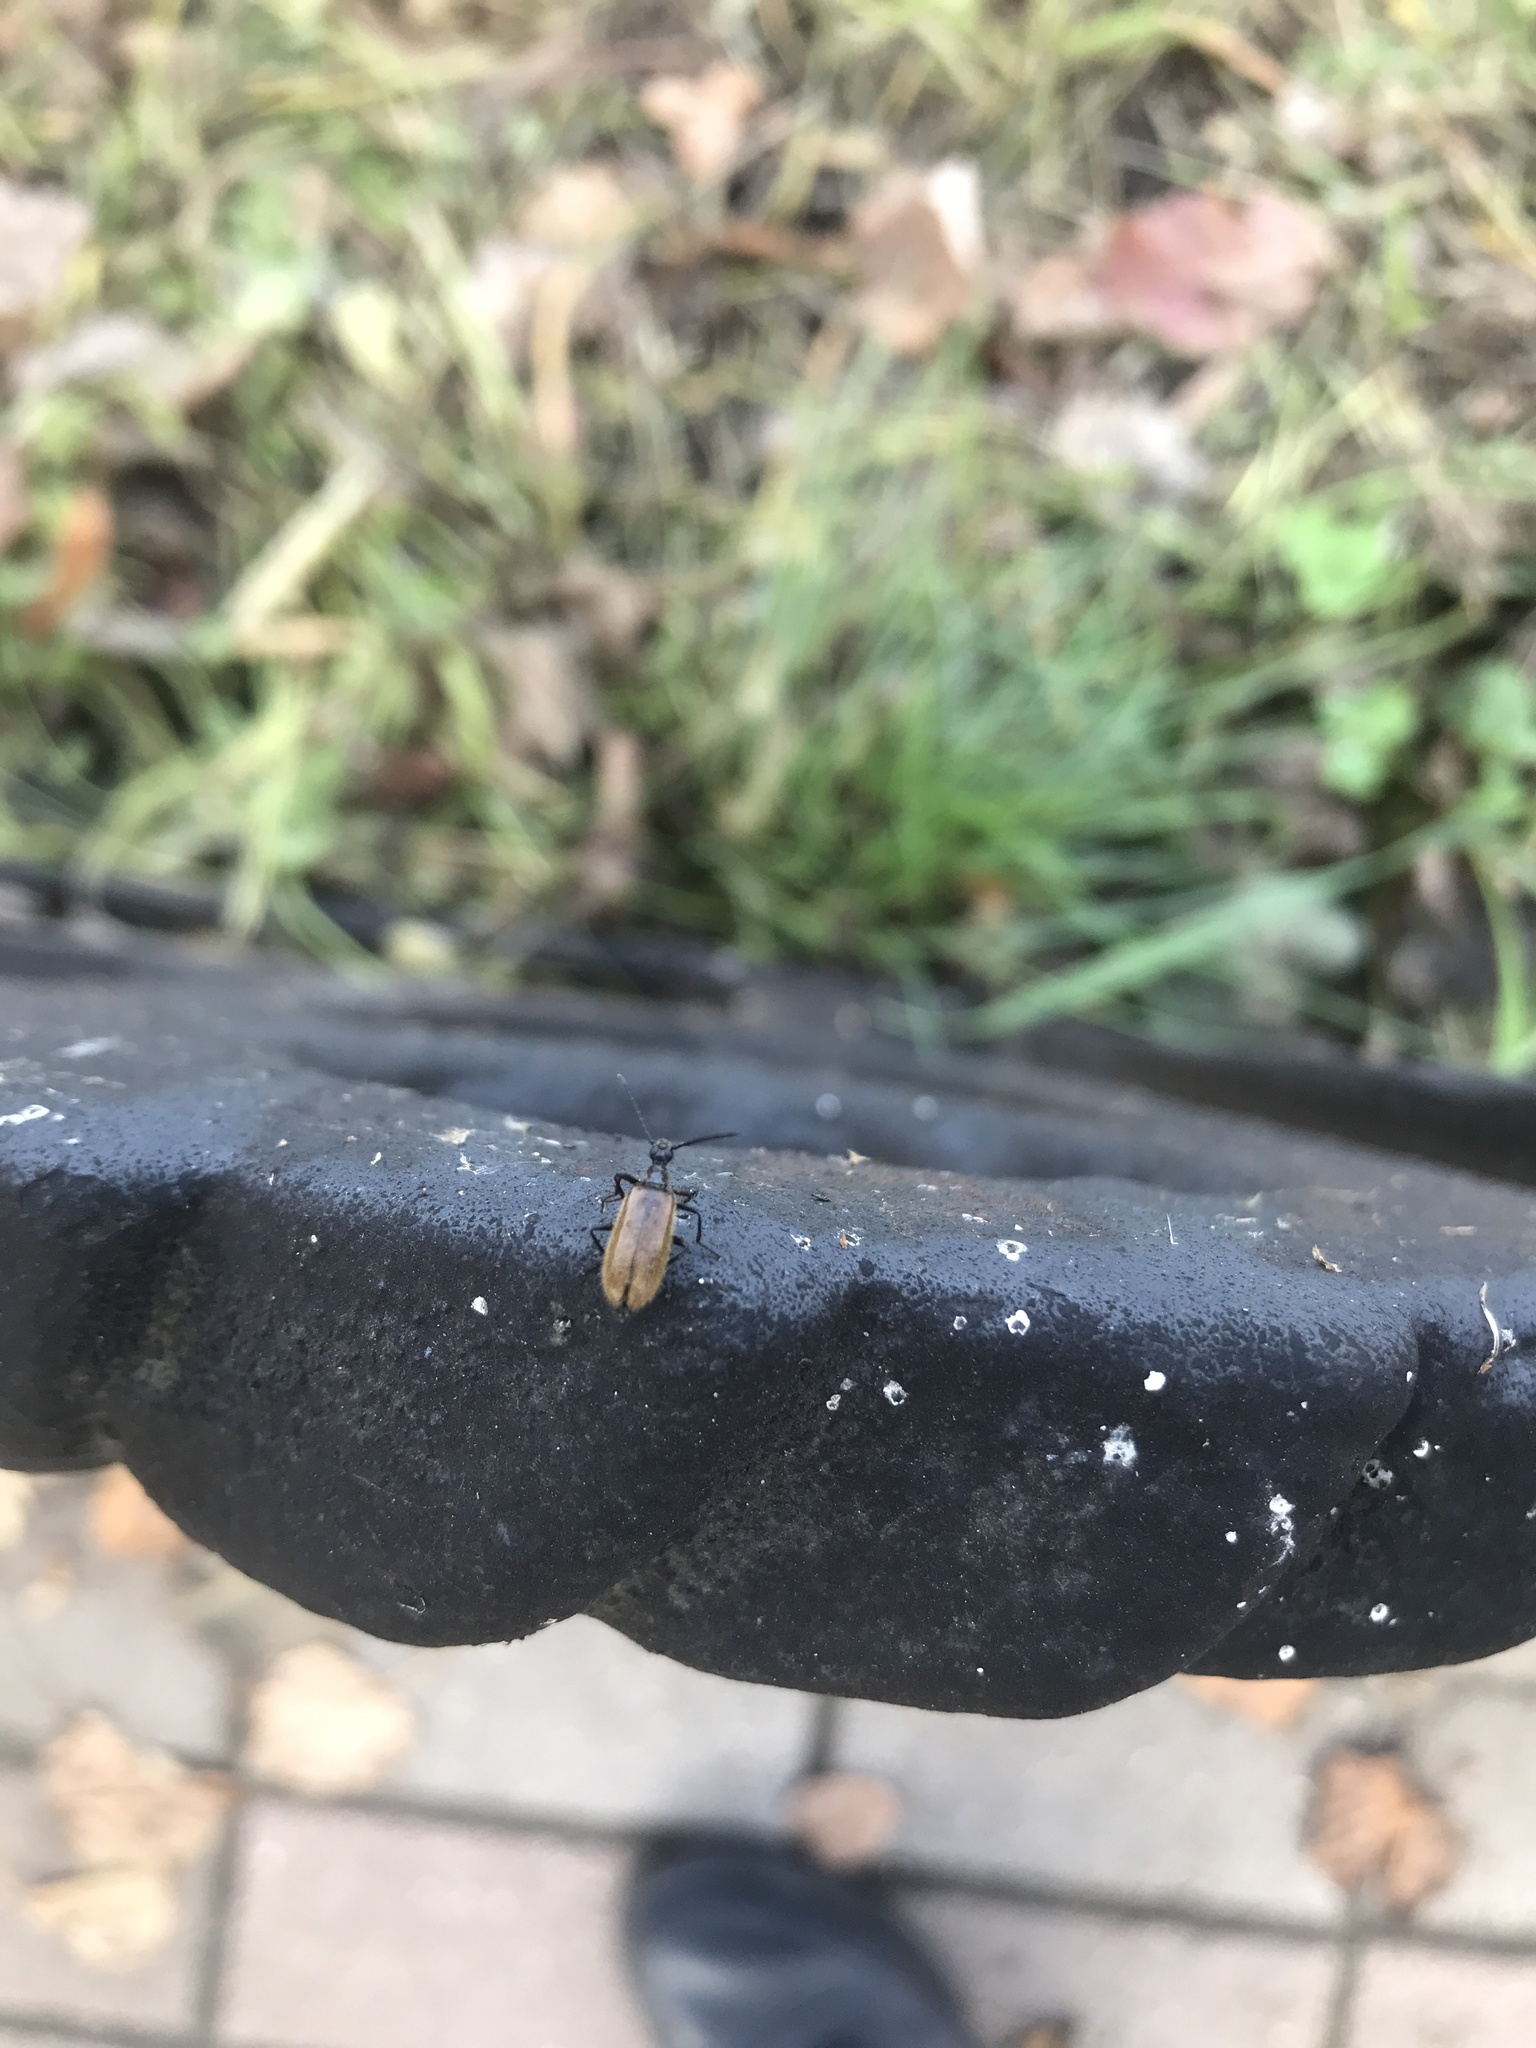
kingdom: Animalia
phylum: Arthropoda
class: Insecta
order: Coleoptera
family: Tenebrionidae
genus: Lagria
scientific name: Lagria hirta
